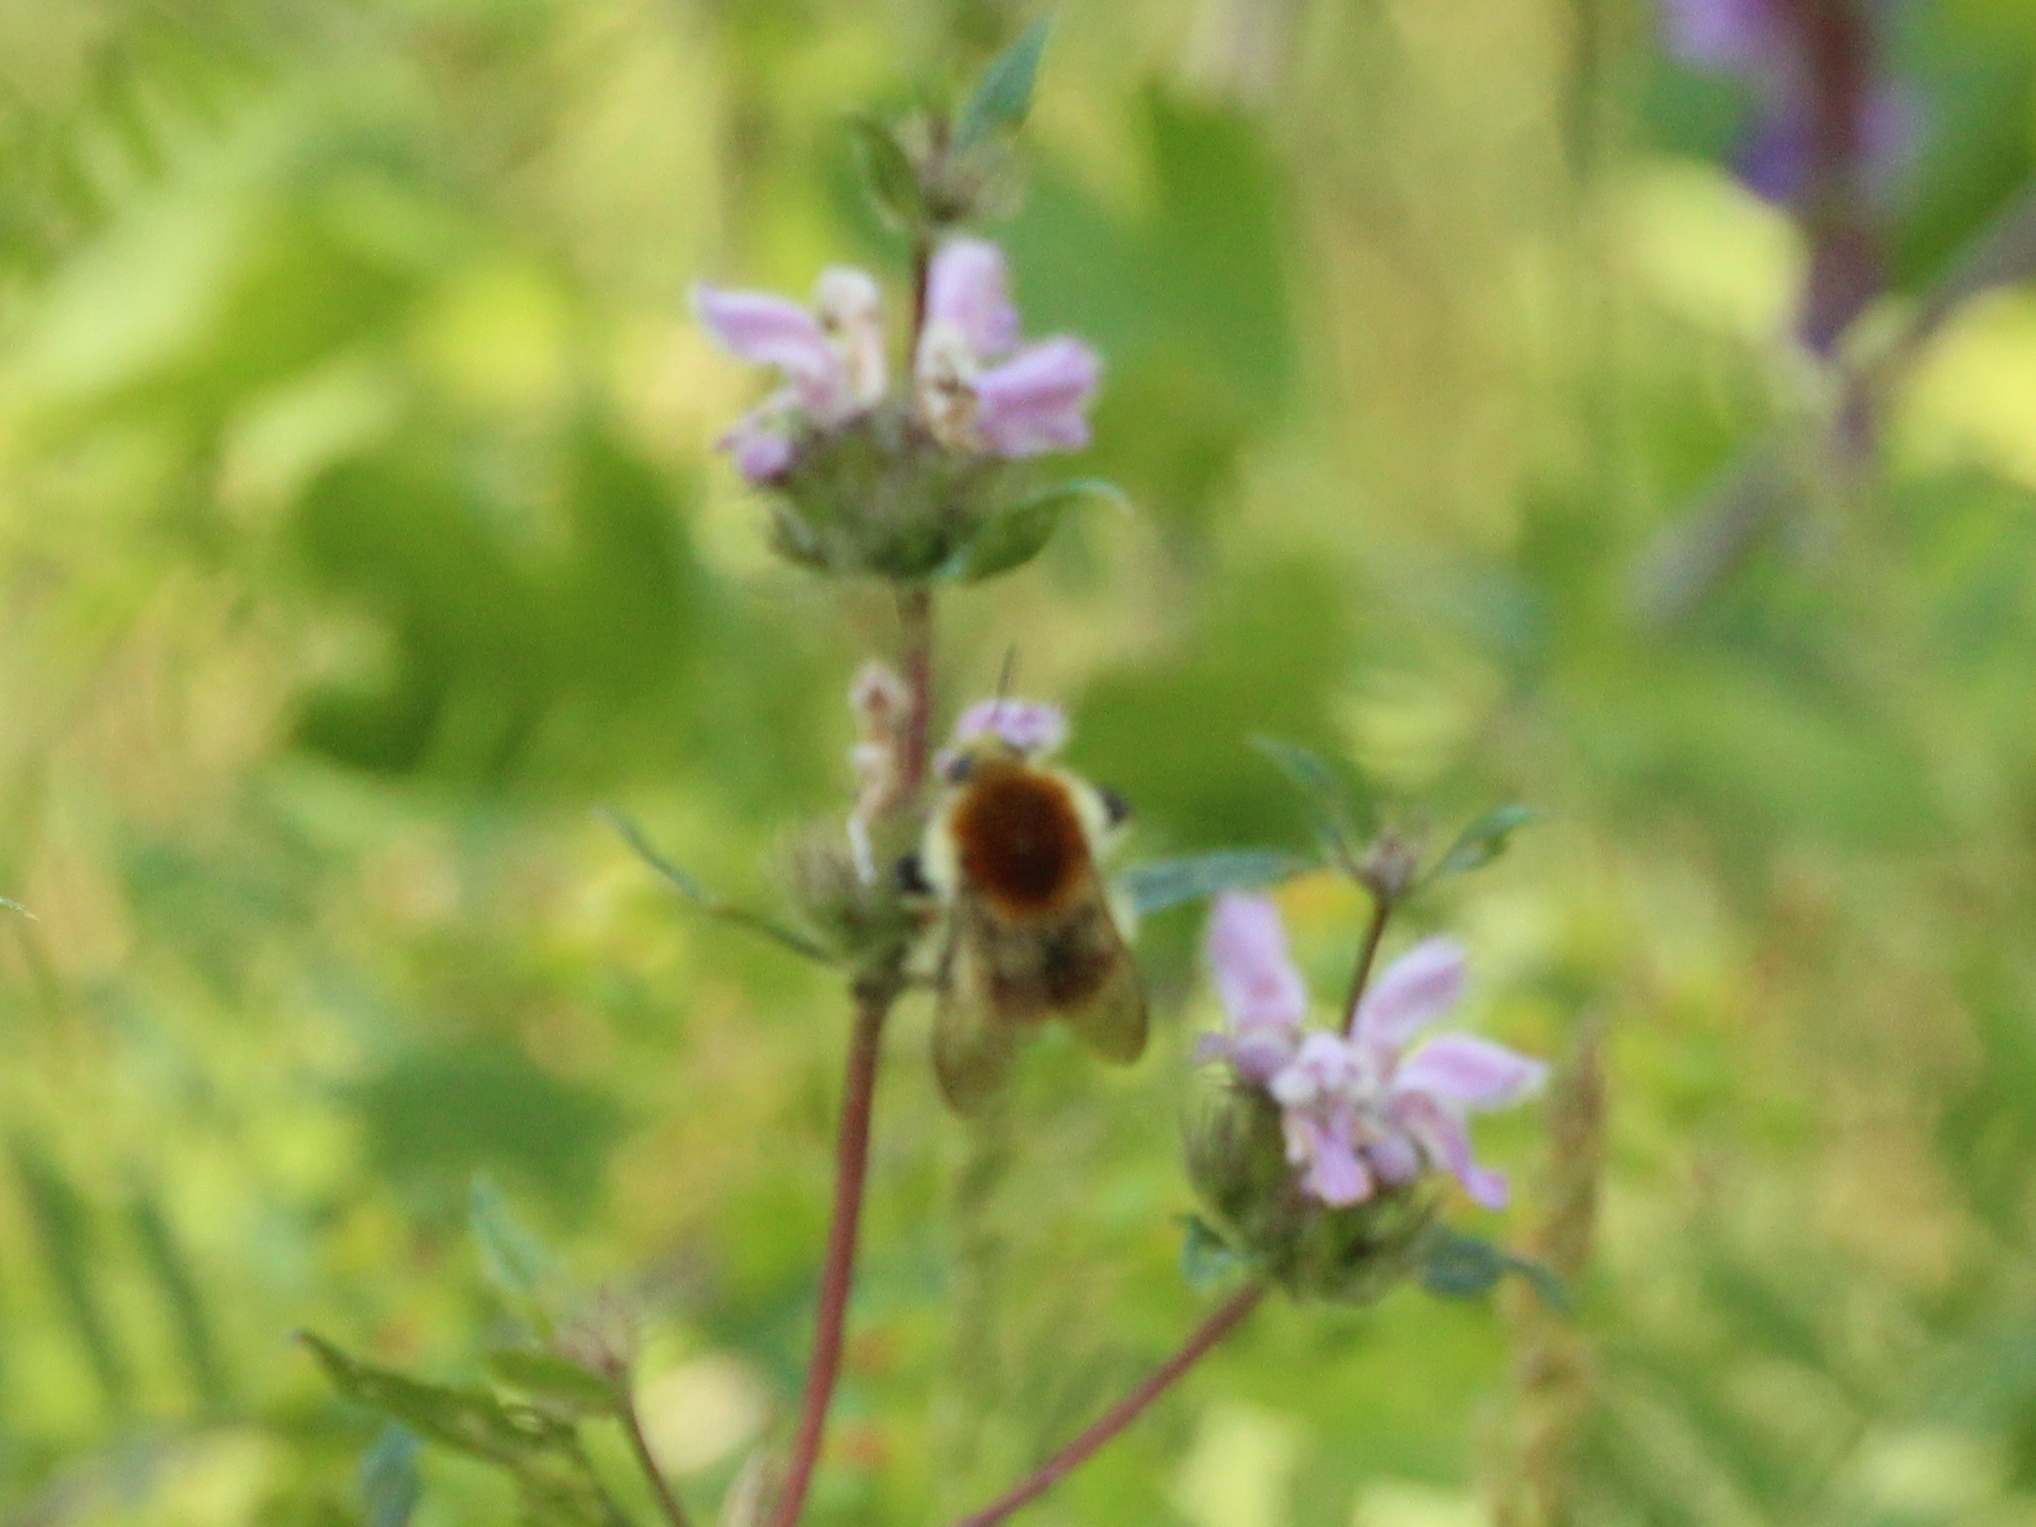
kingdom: Animalia
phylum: Arthropoda
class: Insecta
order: Hymenoptera
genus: Thoracobombus
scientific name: Thoracobombus
